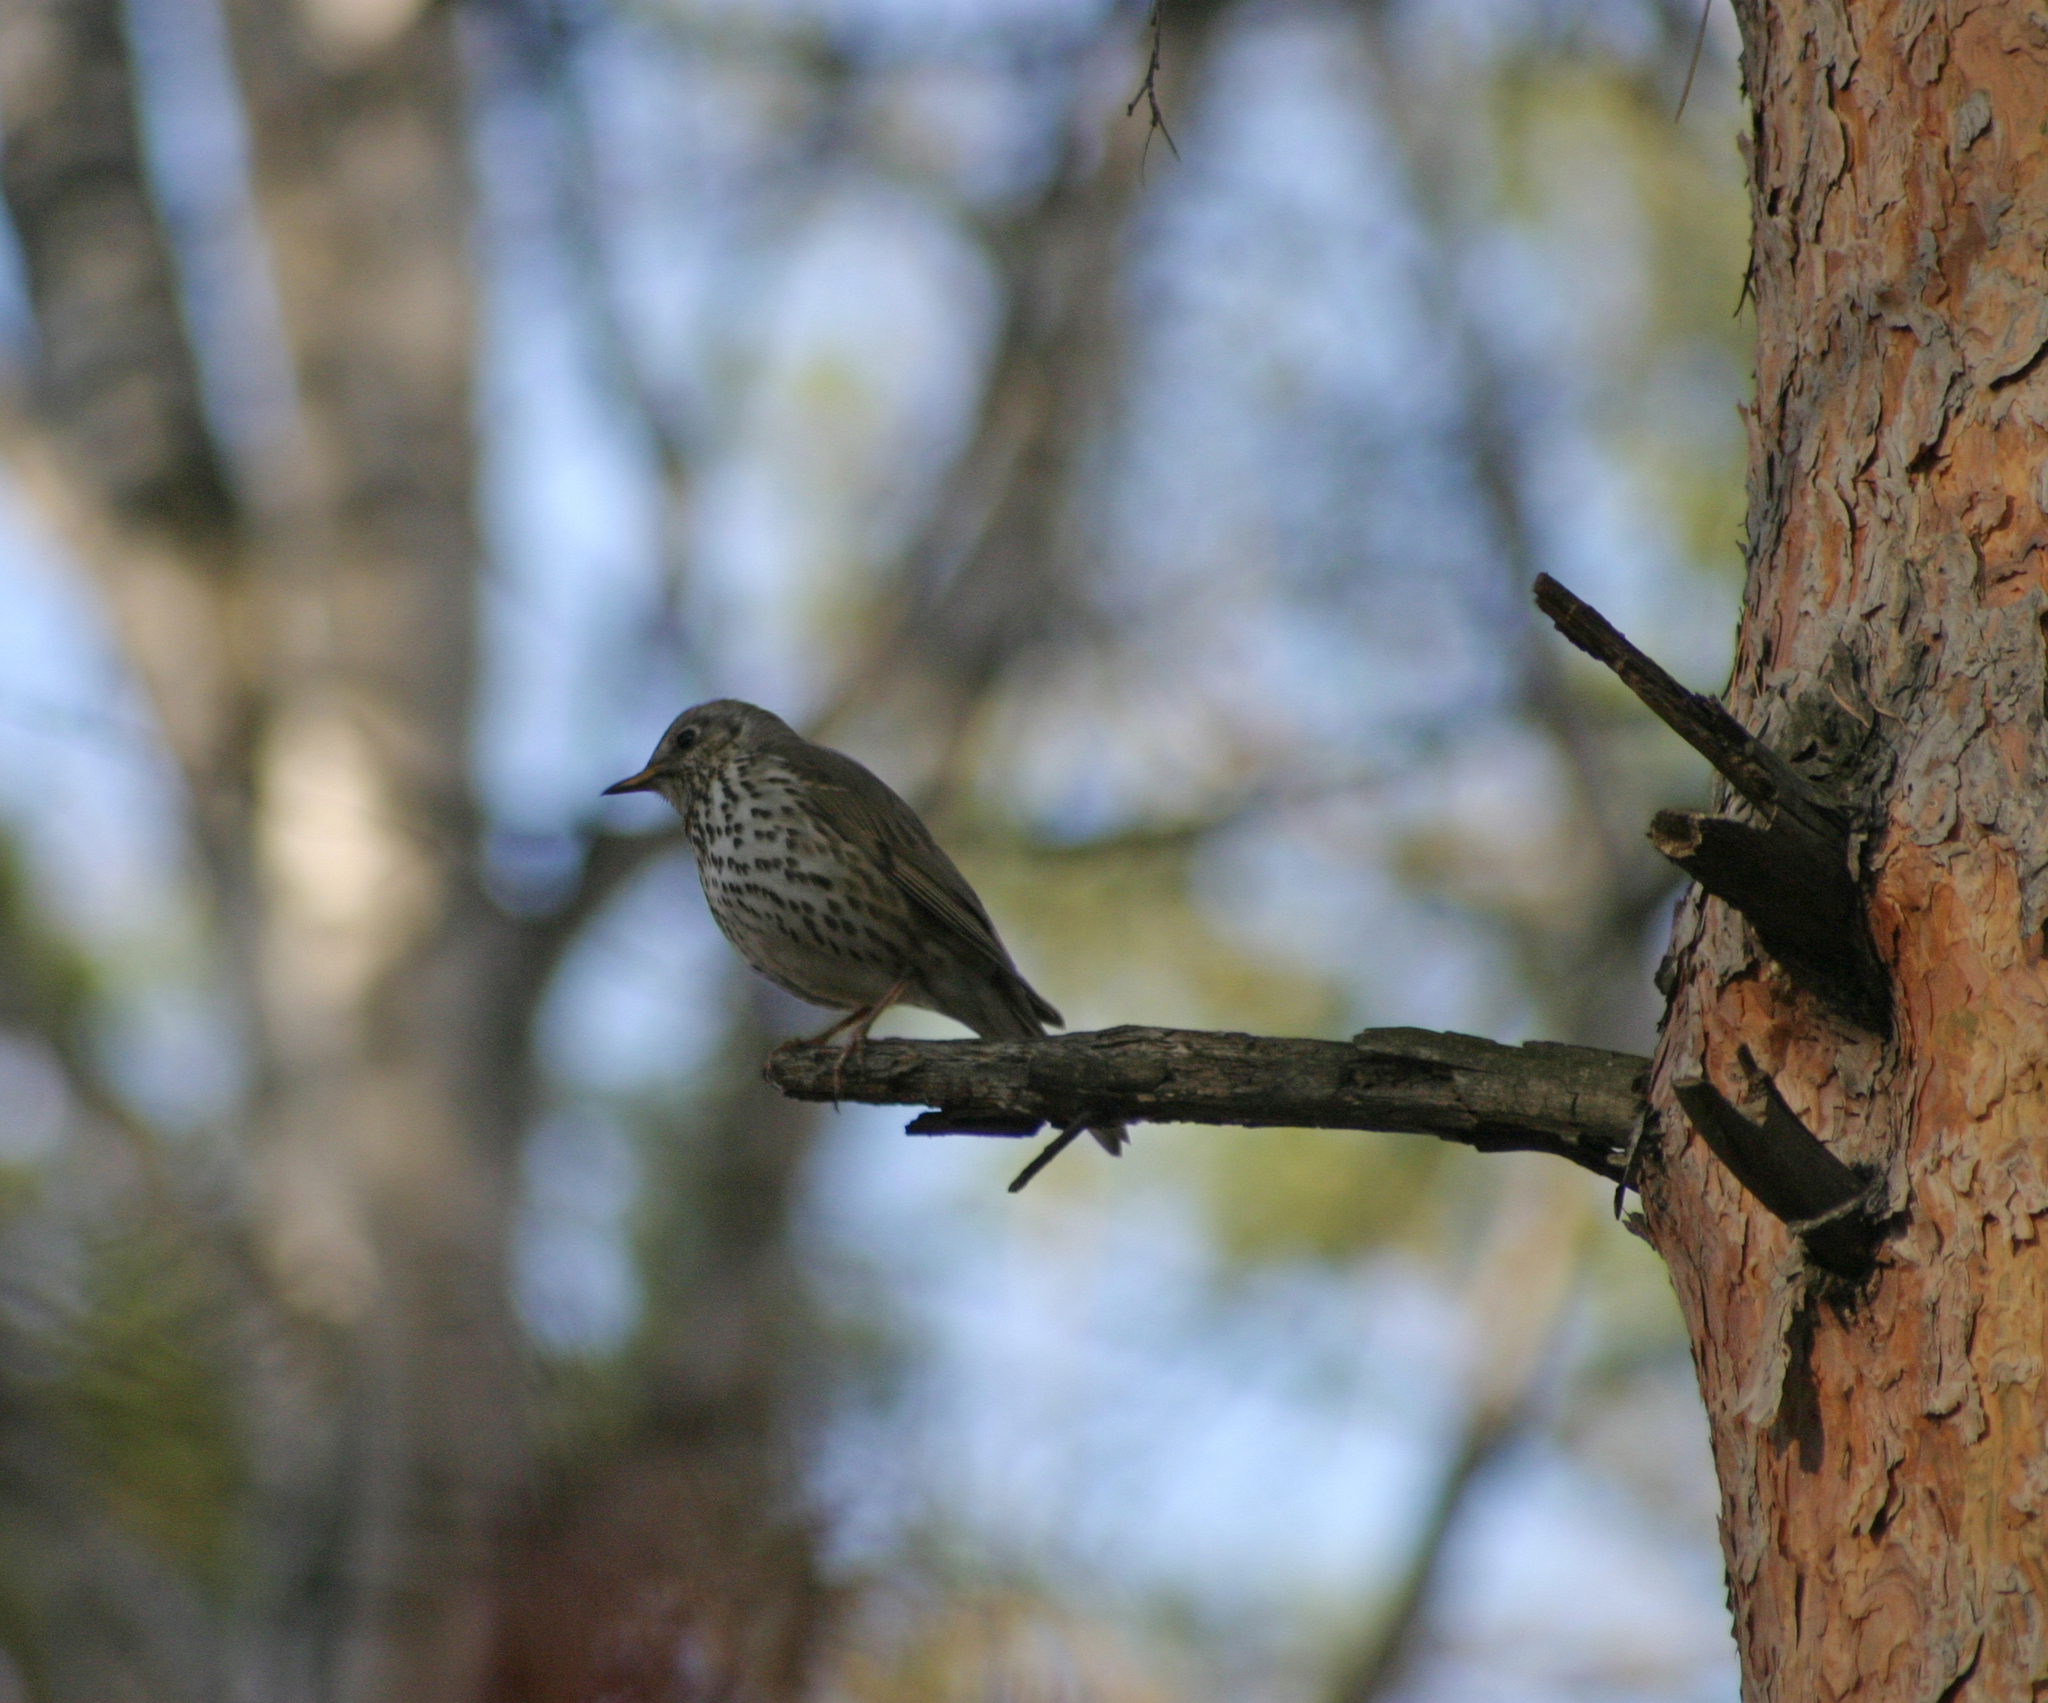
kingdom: Animalia
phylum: Chordata
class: Aves
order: Passeriformes
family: Turdidae
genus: Turdus
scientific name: Turdus philomelos
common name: Song thrush
